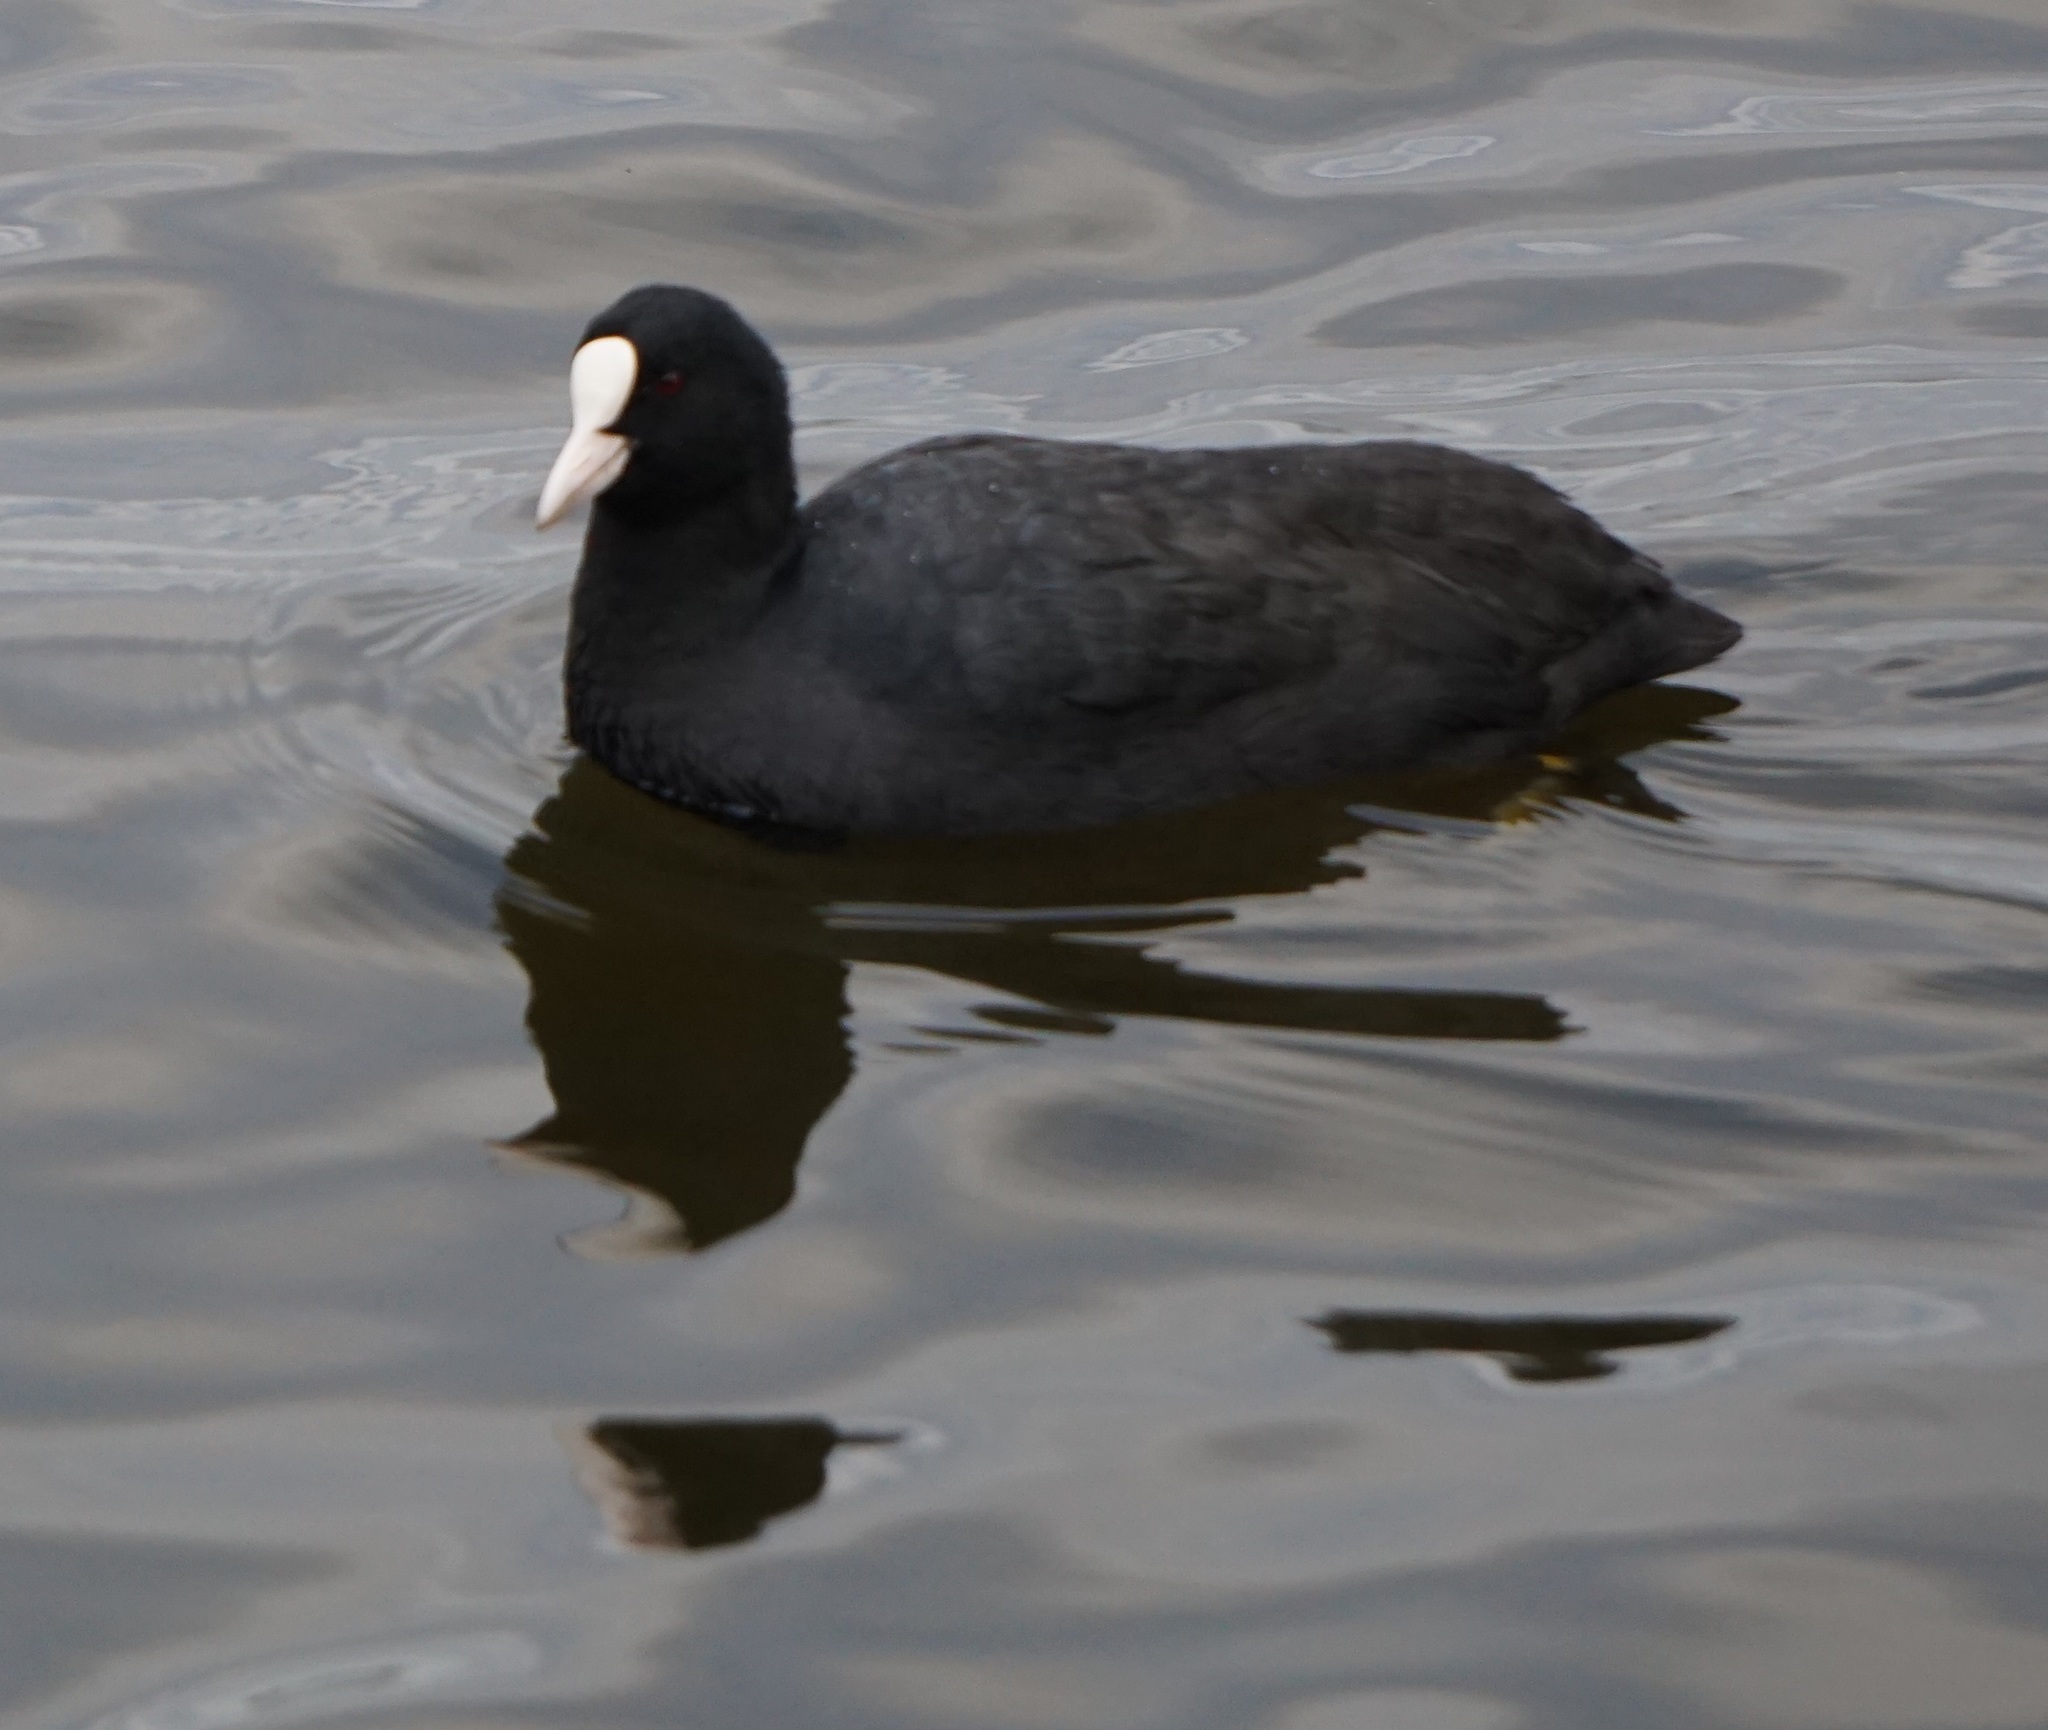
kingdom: Animalia
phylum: Chordata
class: Aves
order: Gruiformes
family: Rallidae
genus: Fulica
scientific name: Fulica atra
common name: Eurasian coot
